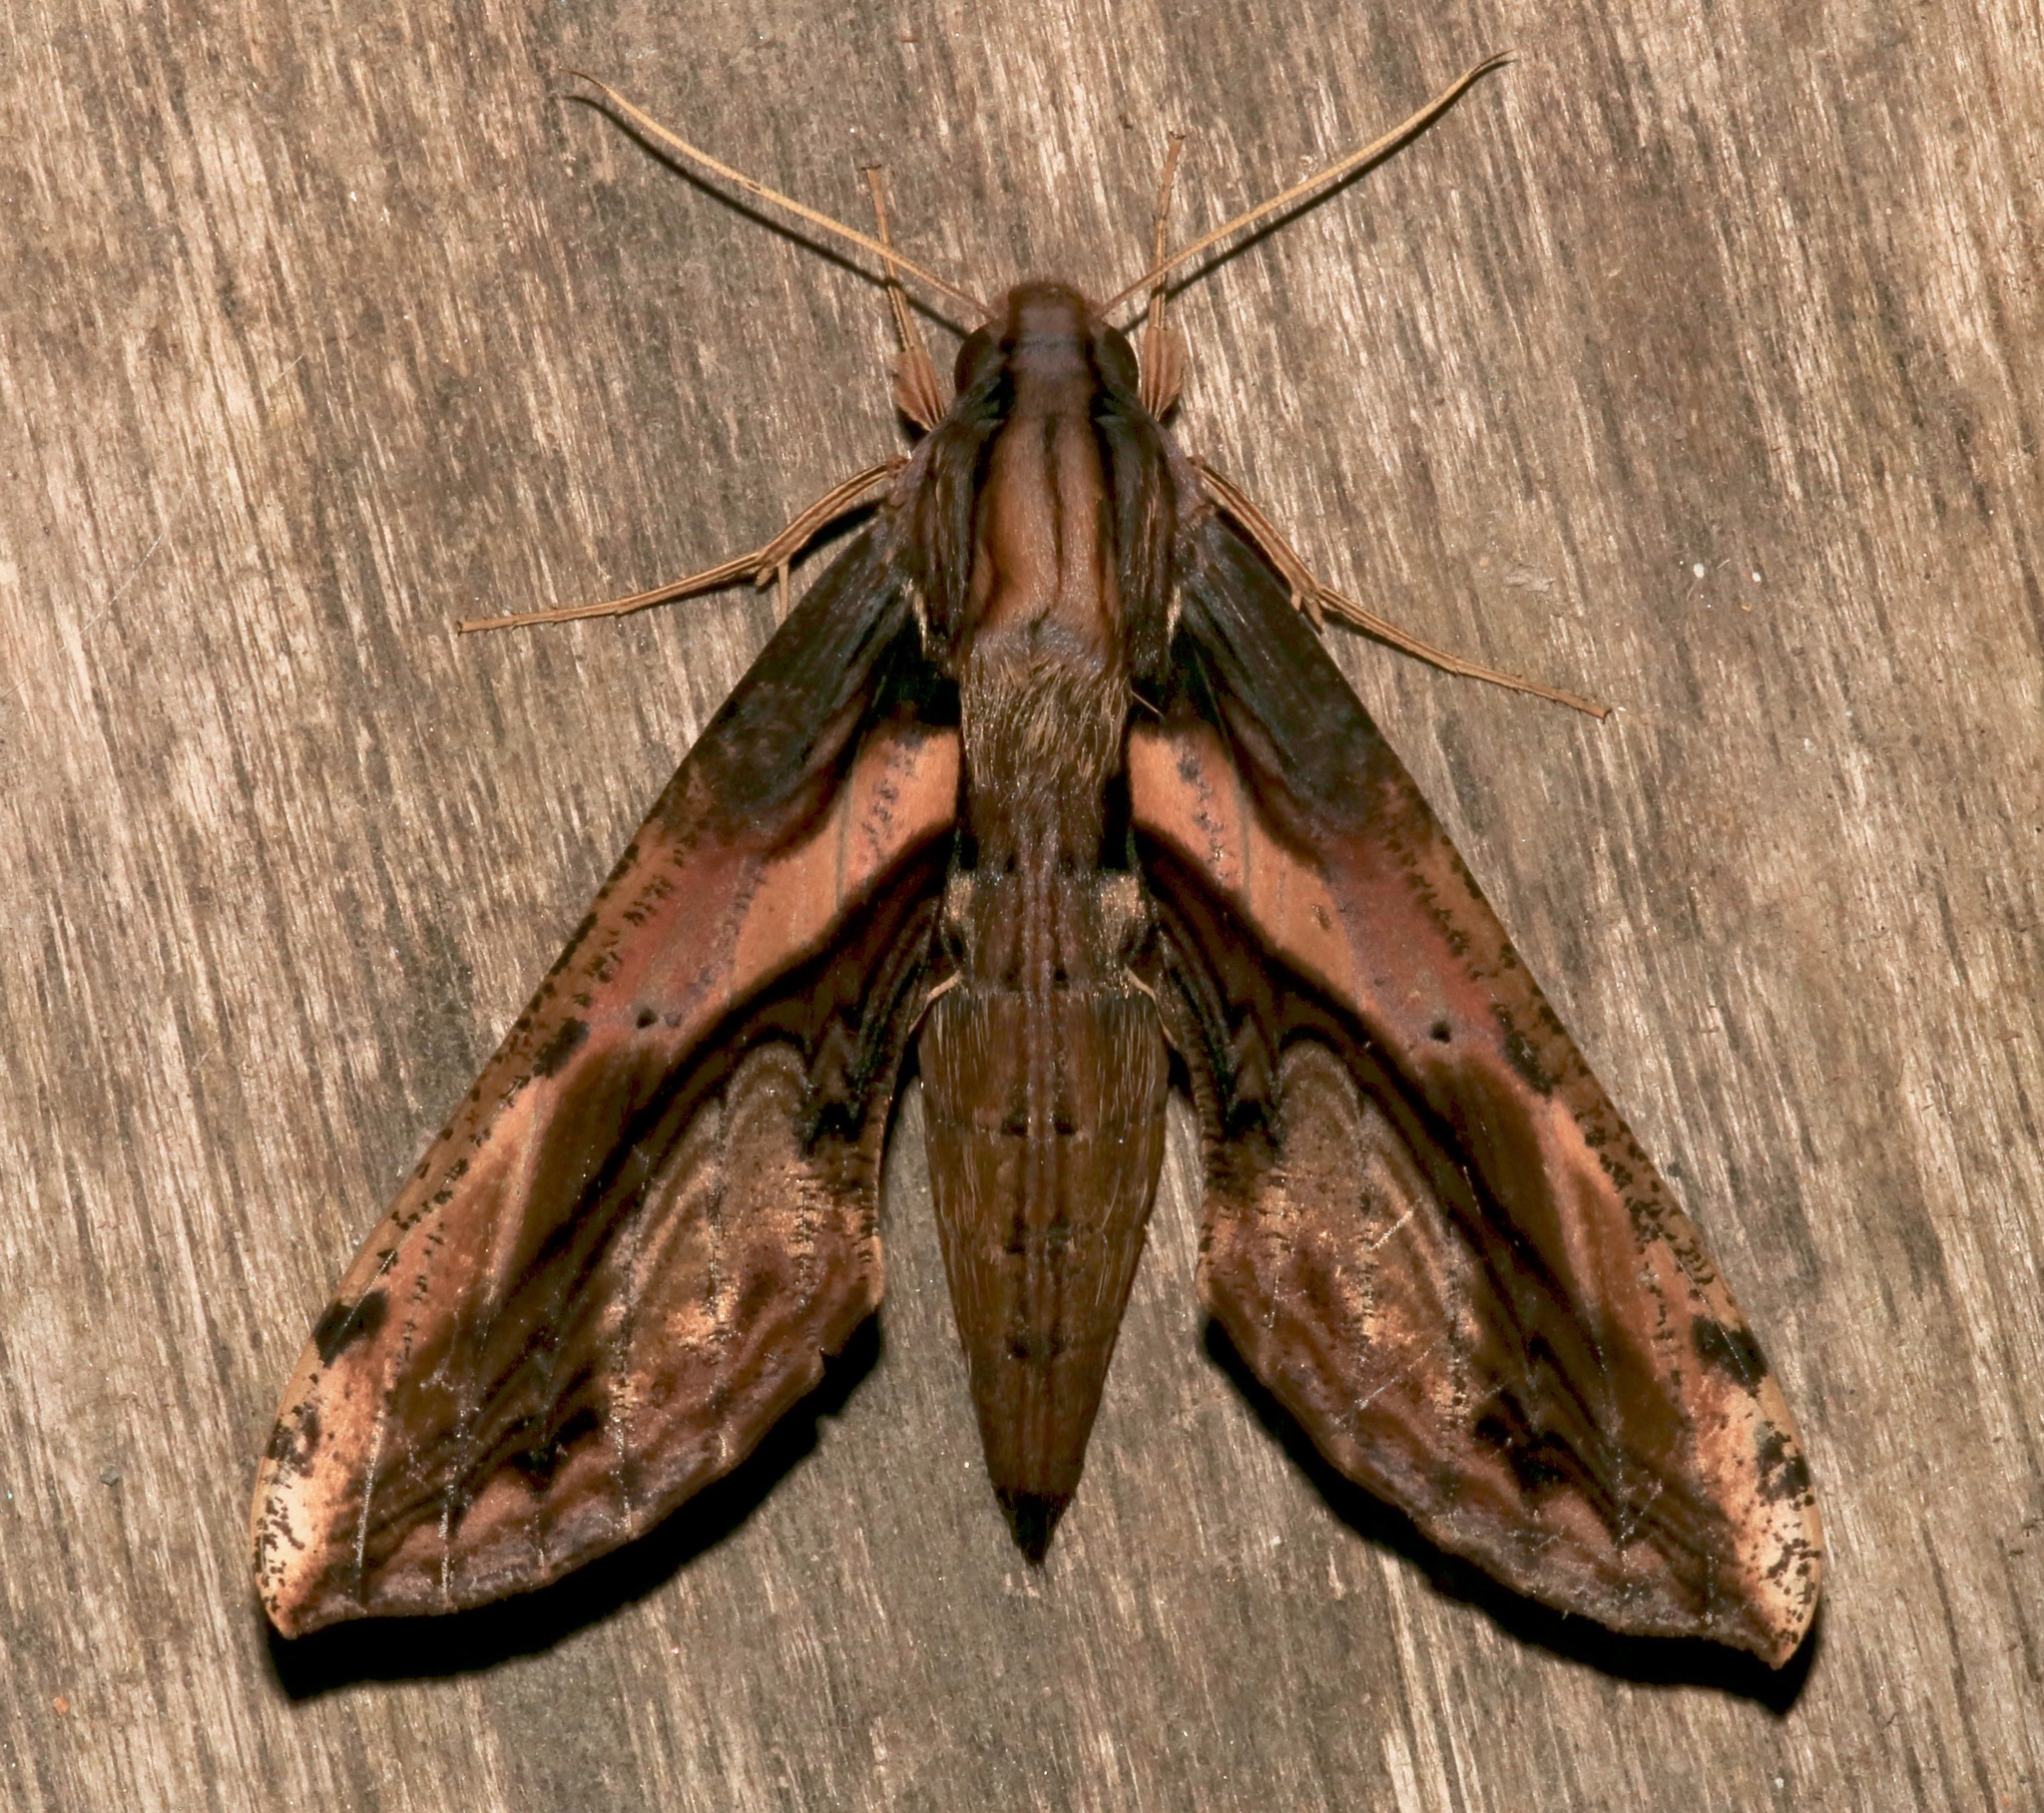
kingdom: Animalia
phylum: Arthropoda
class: Insecta
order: Lepidoptera
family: Sphingidae
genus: Xylophanes
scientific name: Xylophanes ceratomioides
